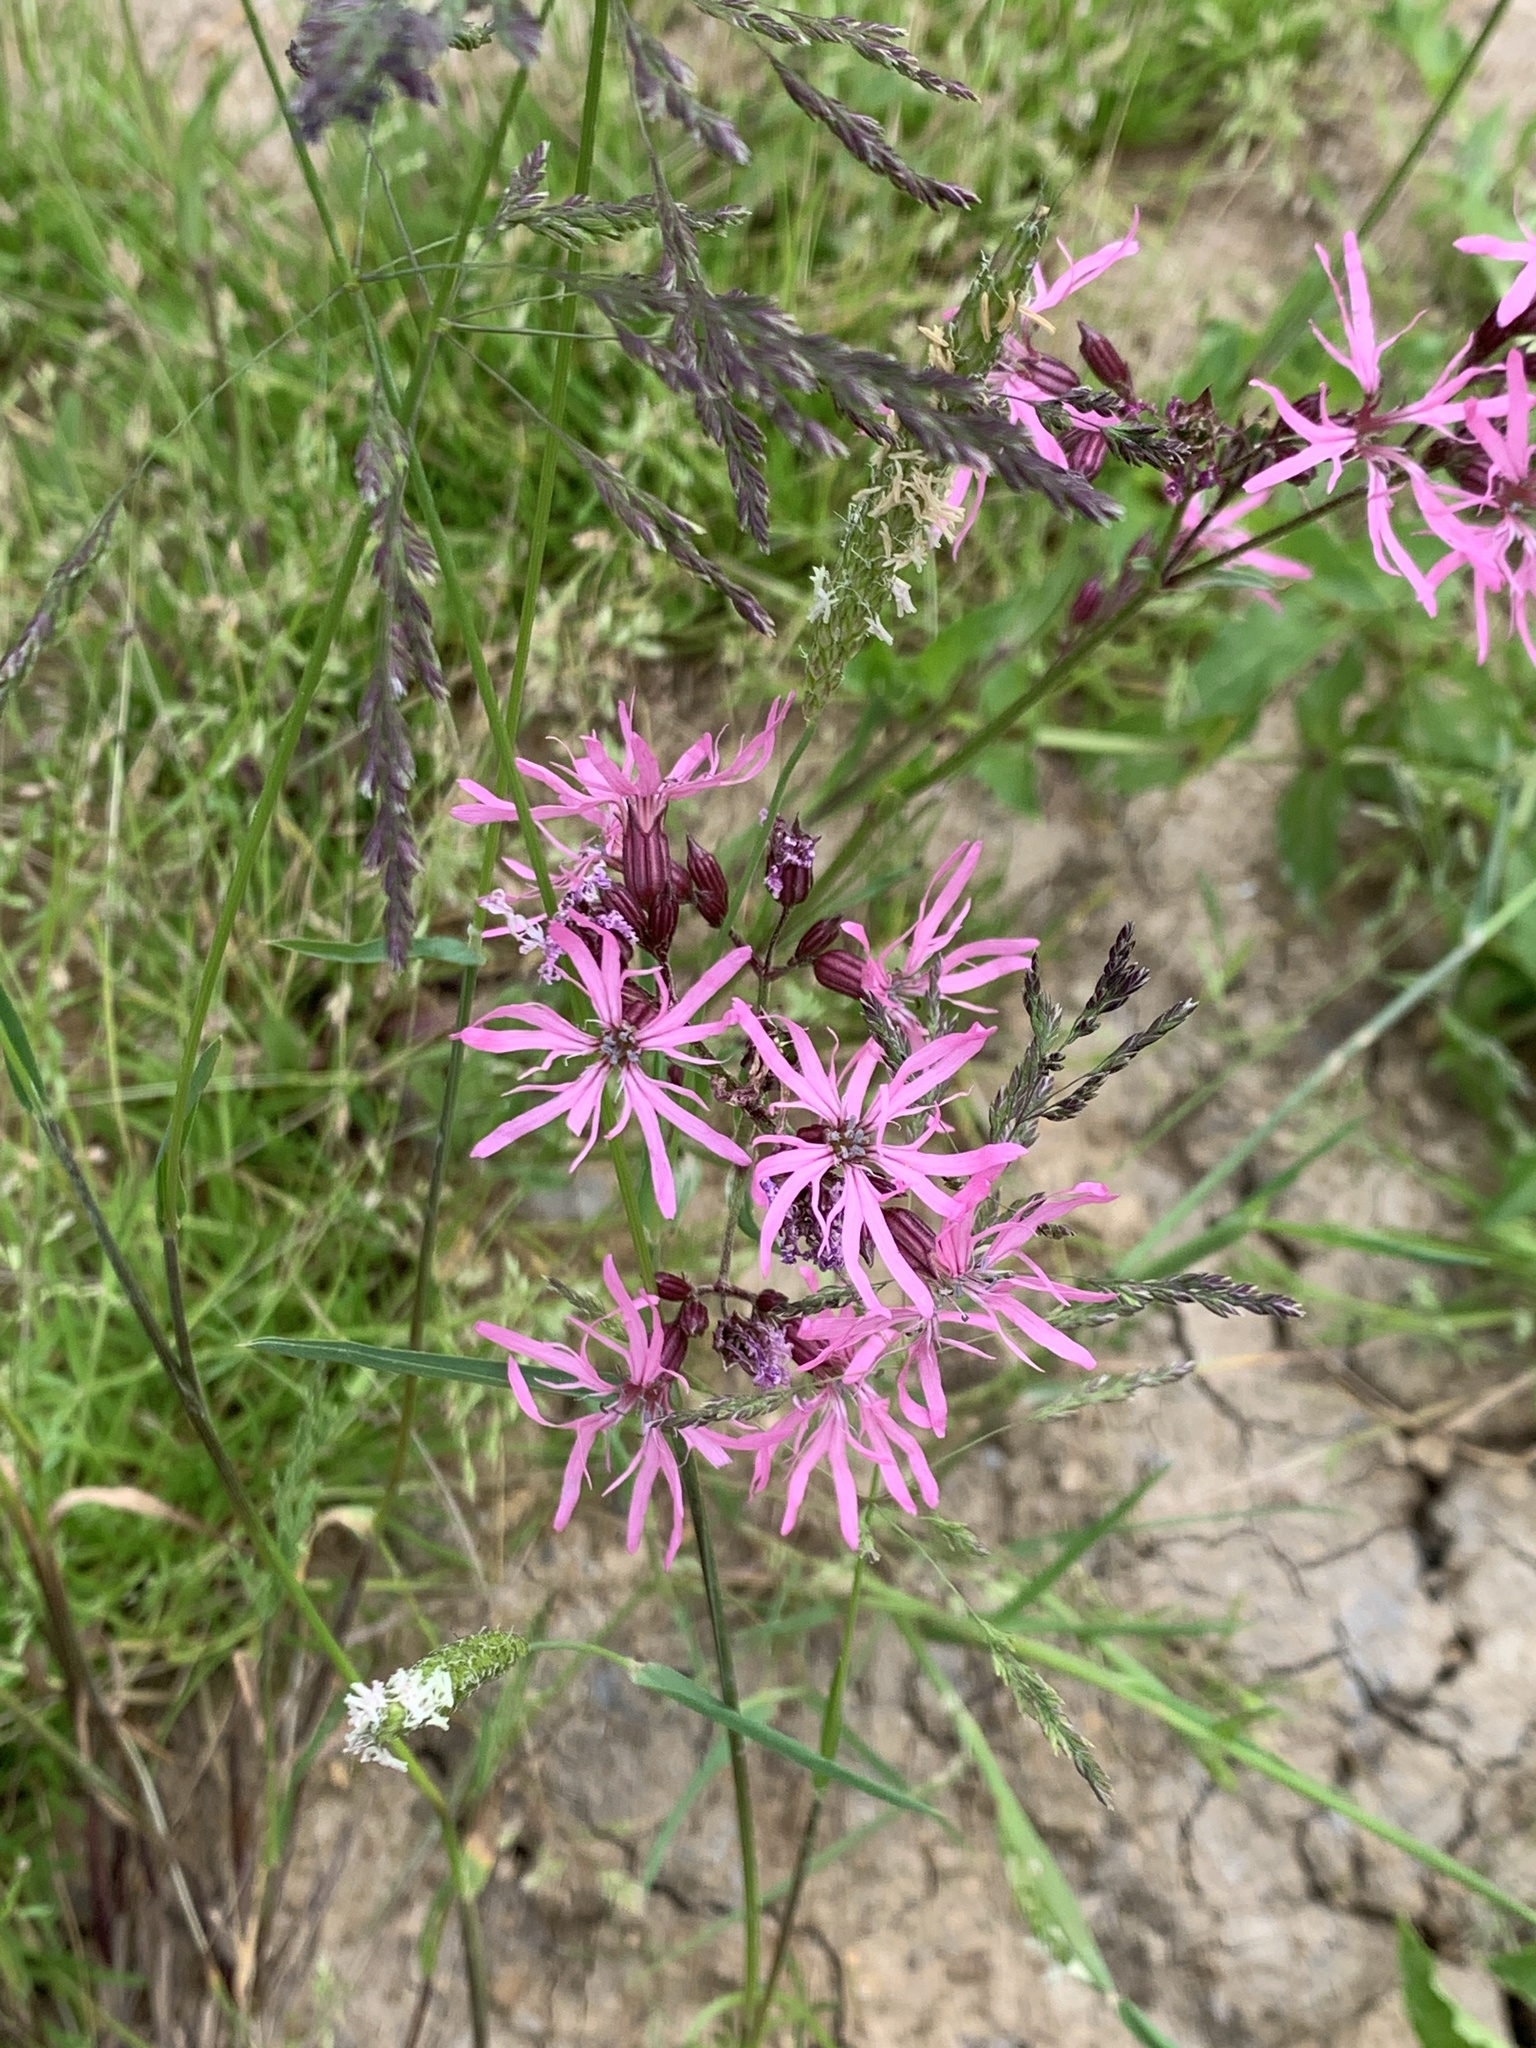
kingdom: Plantae
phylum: Tracheophyta
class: Magnoliopsida
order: Caryophyllales
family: Caryophyllaceae
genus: Silene
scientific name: Silene flos-cuculi
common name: Ragged-robin
